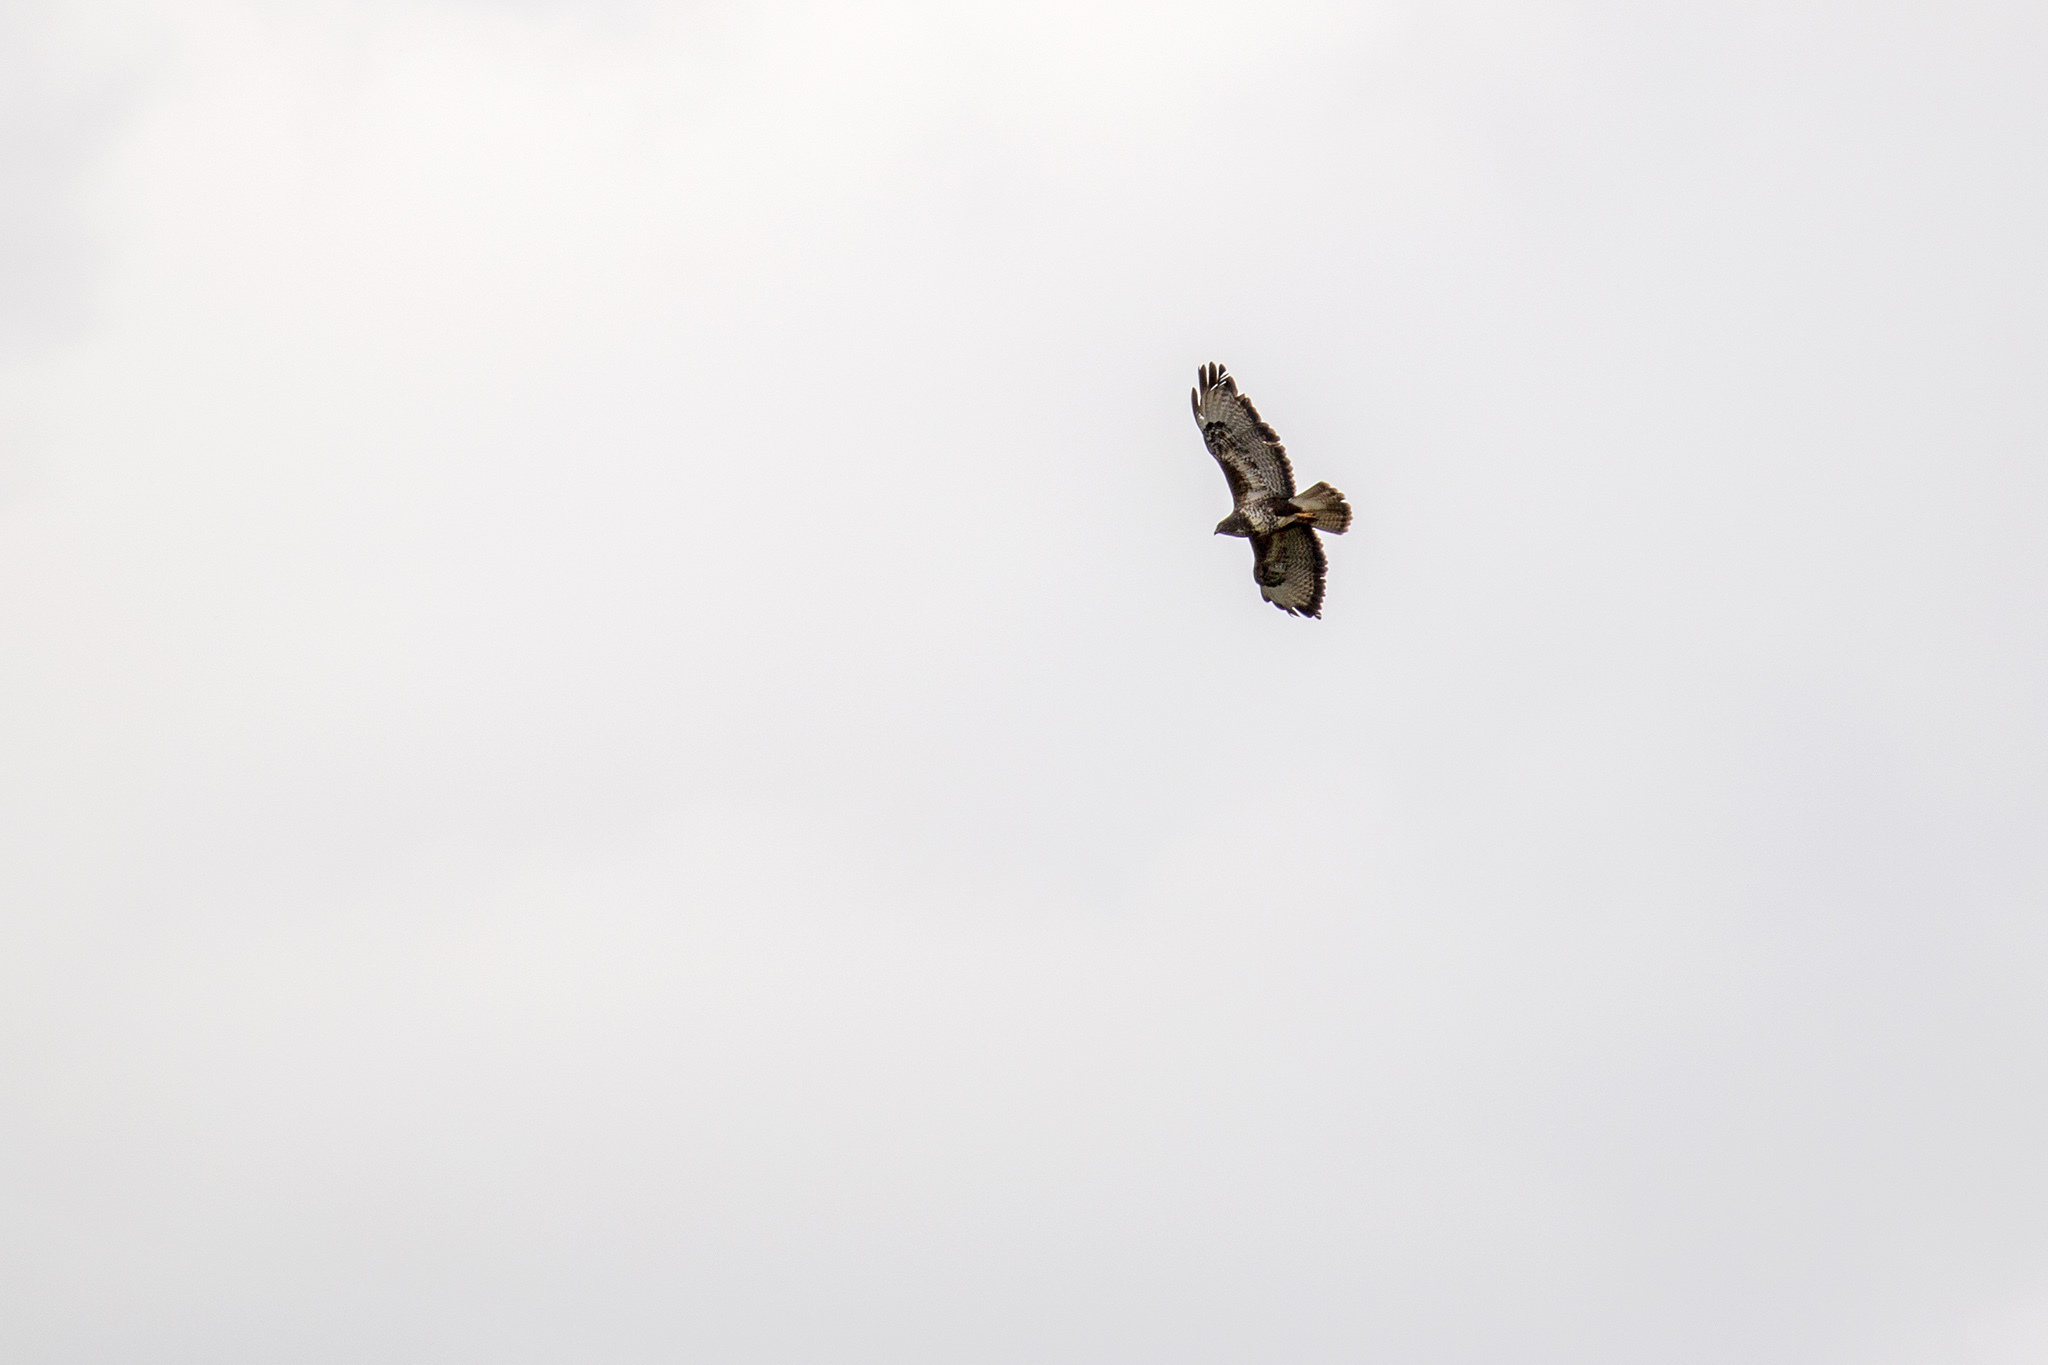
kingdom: Animalia
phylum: Chordata
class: Aves
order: Accipitriformes
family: Accipitridae
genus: Buteo
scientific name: Buteo buteo
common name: Common buzzard
